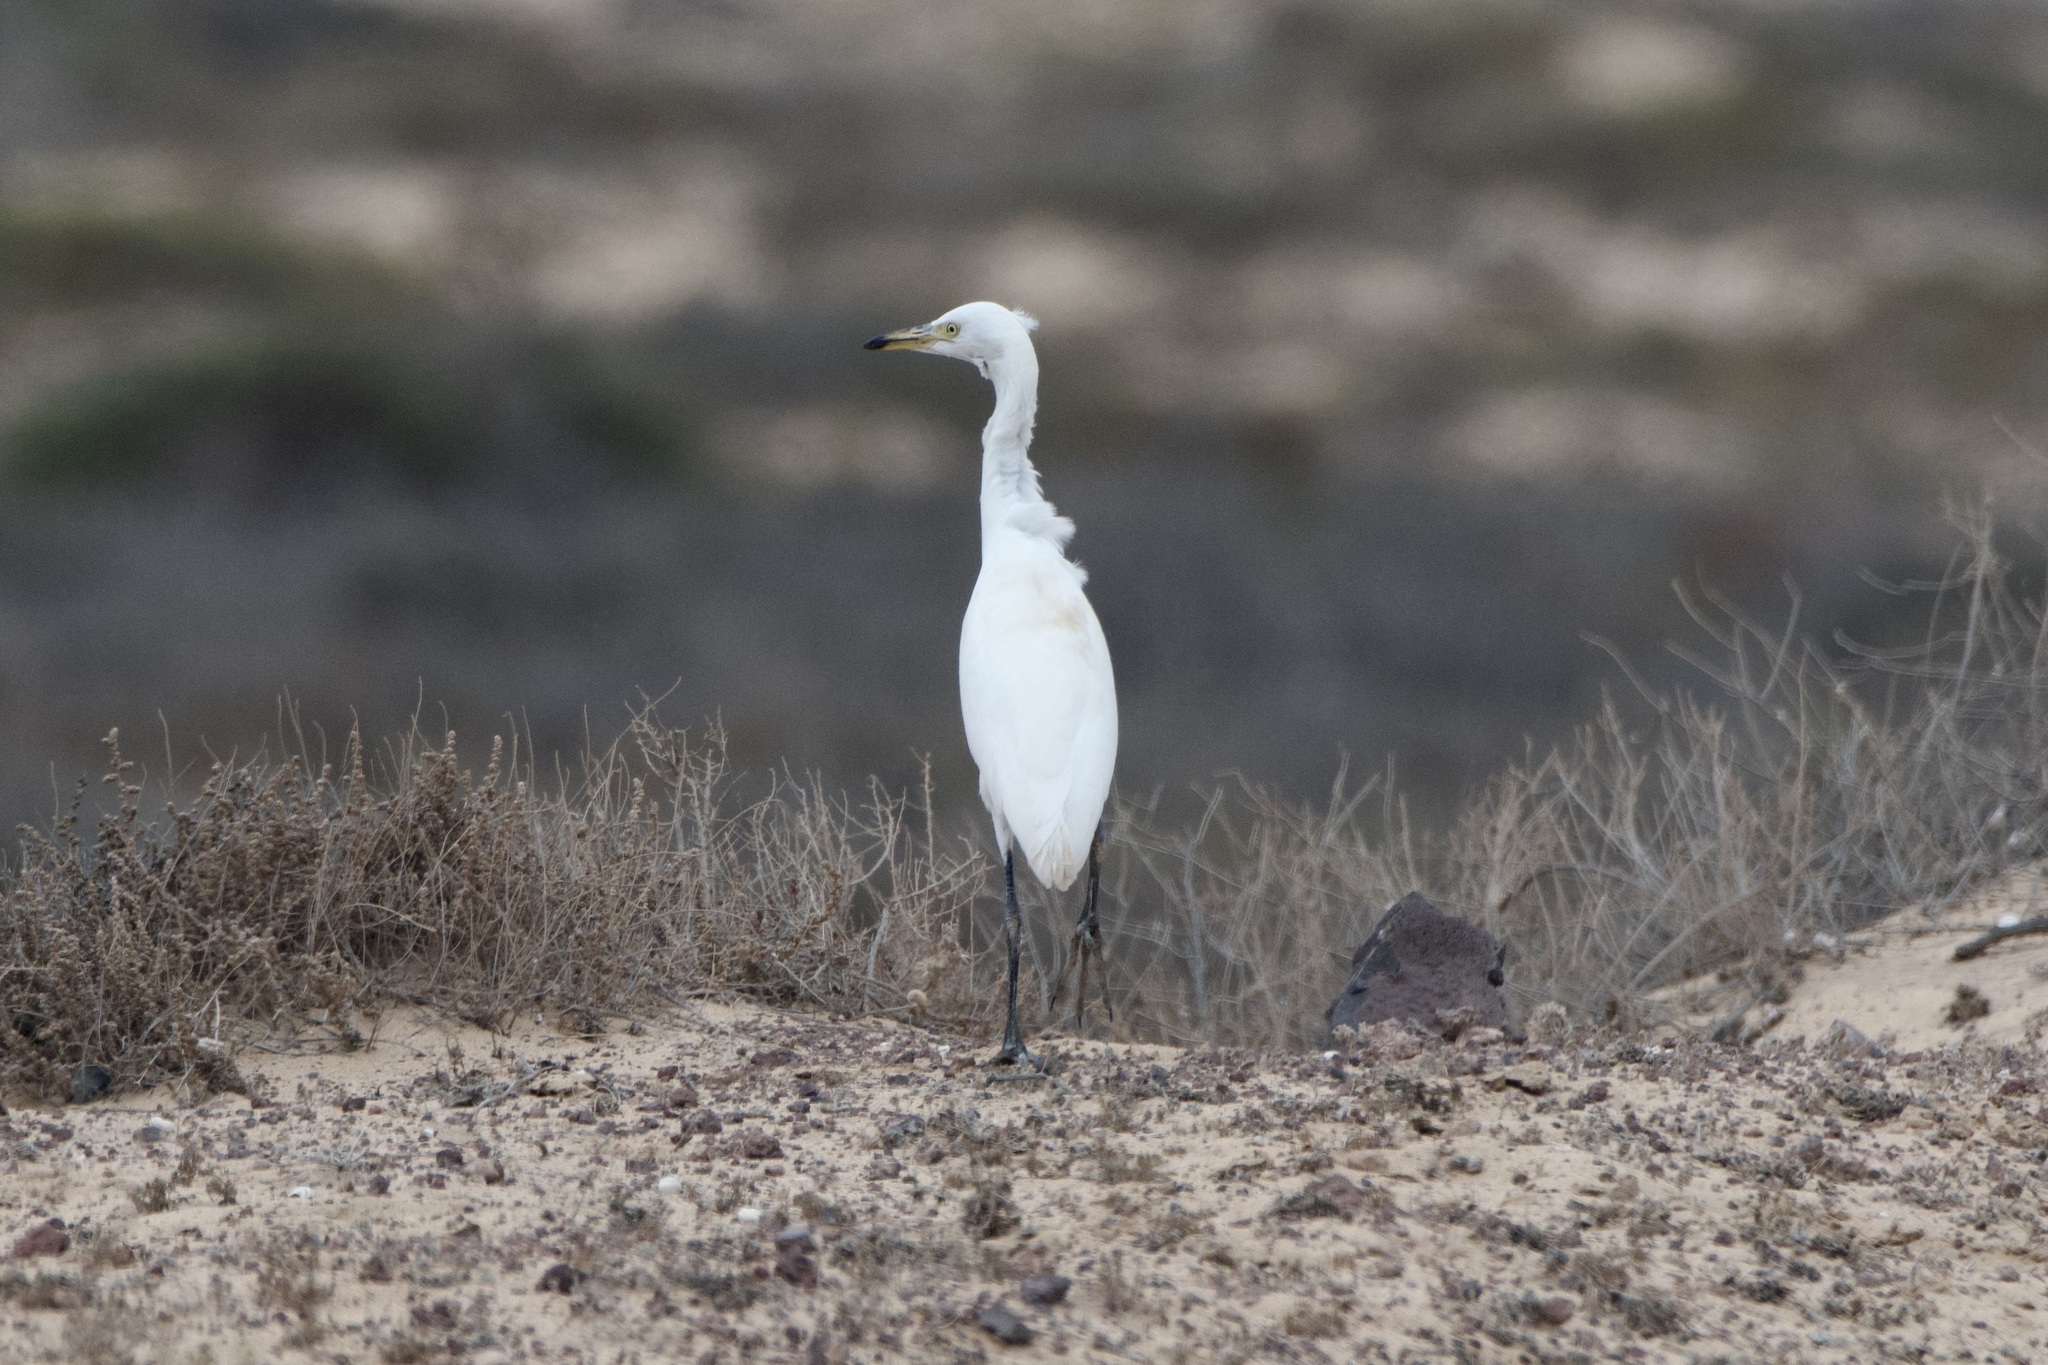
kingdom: Animalia
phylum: Chordata
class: Aves
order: Pelecaniformes
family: Ardeidae
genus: Bubulcus
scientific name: Bubulcus ibis
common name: Cattle egret
